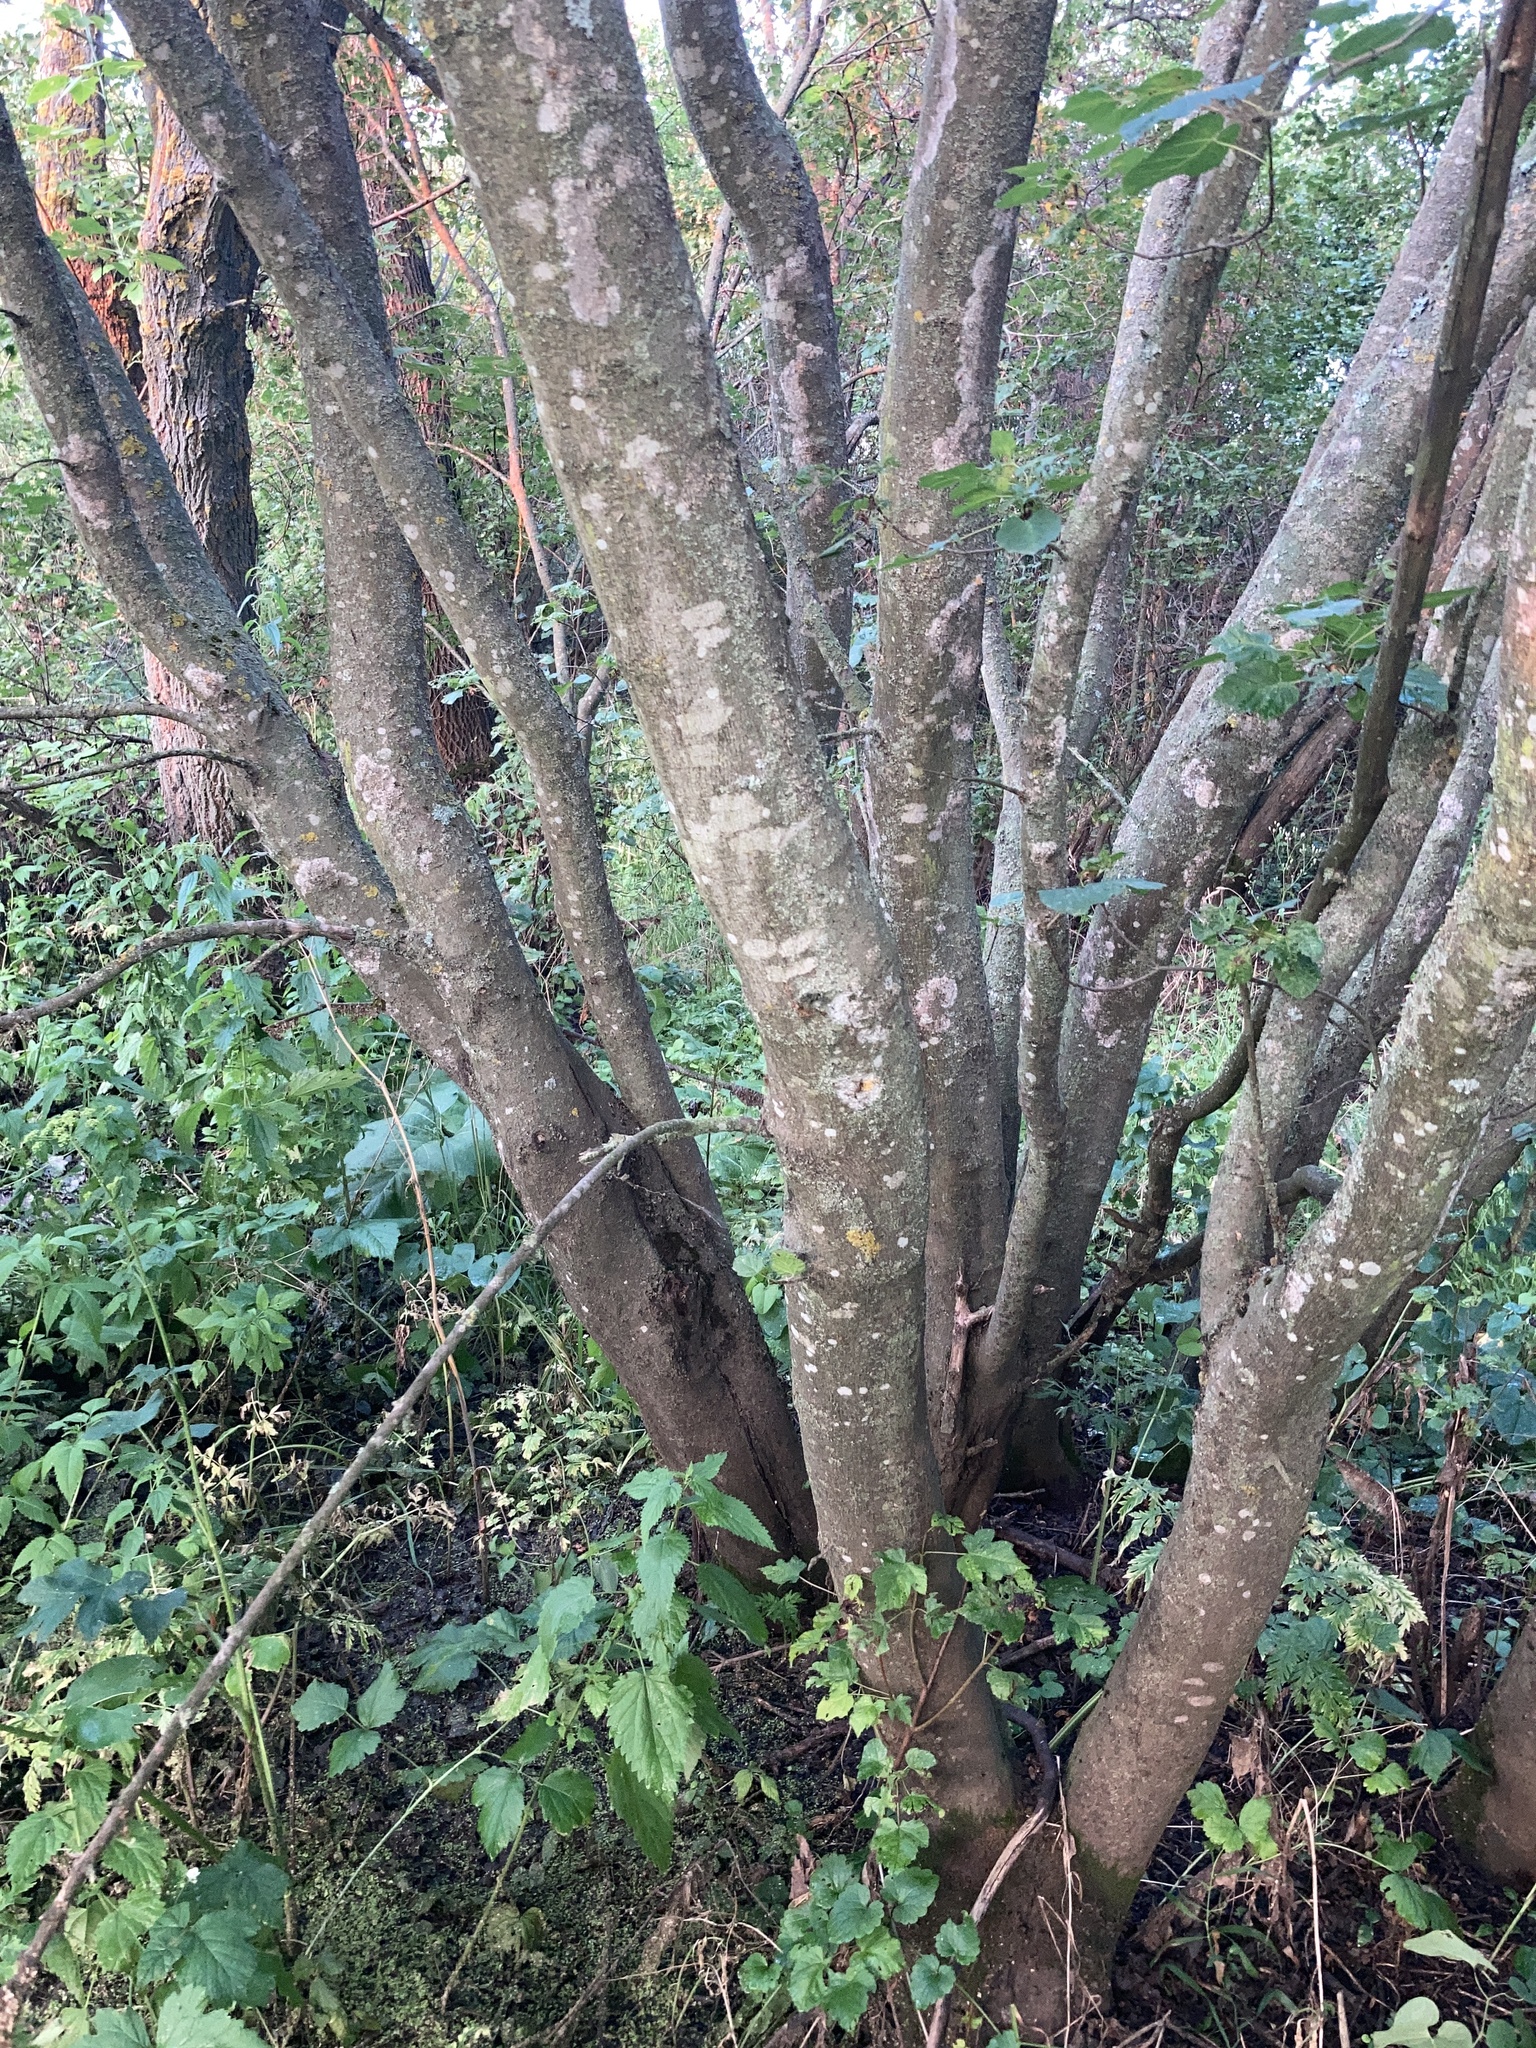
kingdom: Plantae
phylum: Tracheophyta
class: Magnoliopsida
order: Sapindales
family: Sapindaceae
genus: Acer
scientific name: Acer tataricum
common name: Tartar maple
